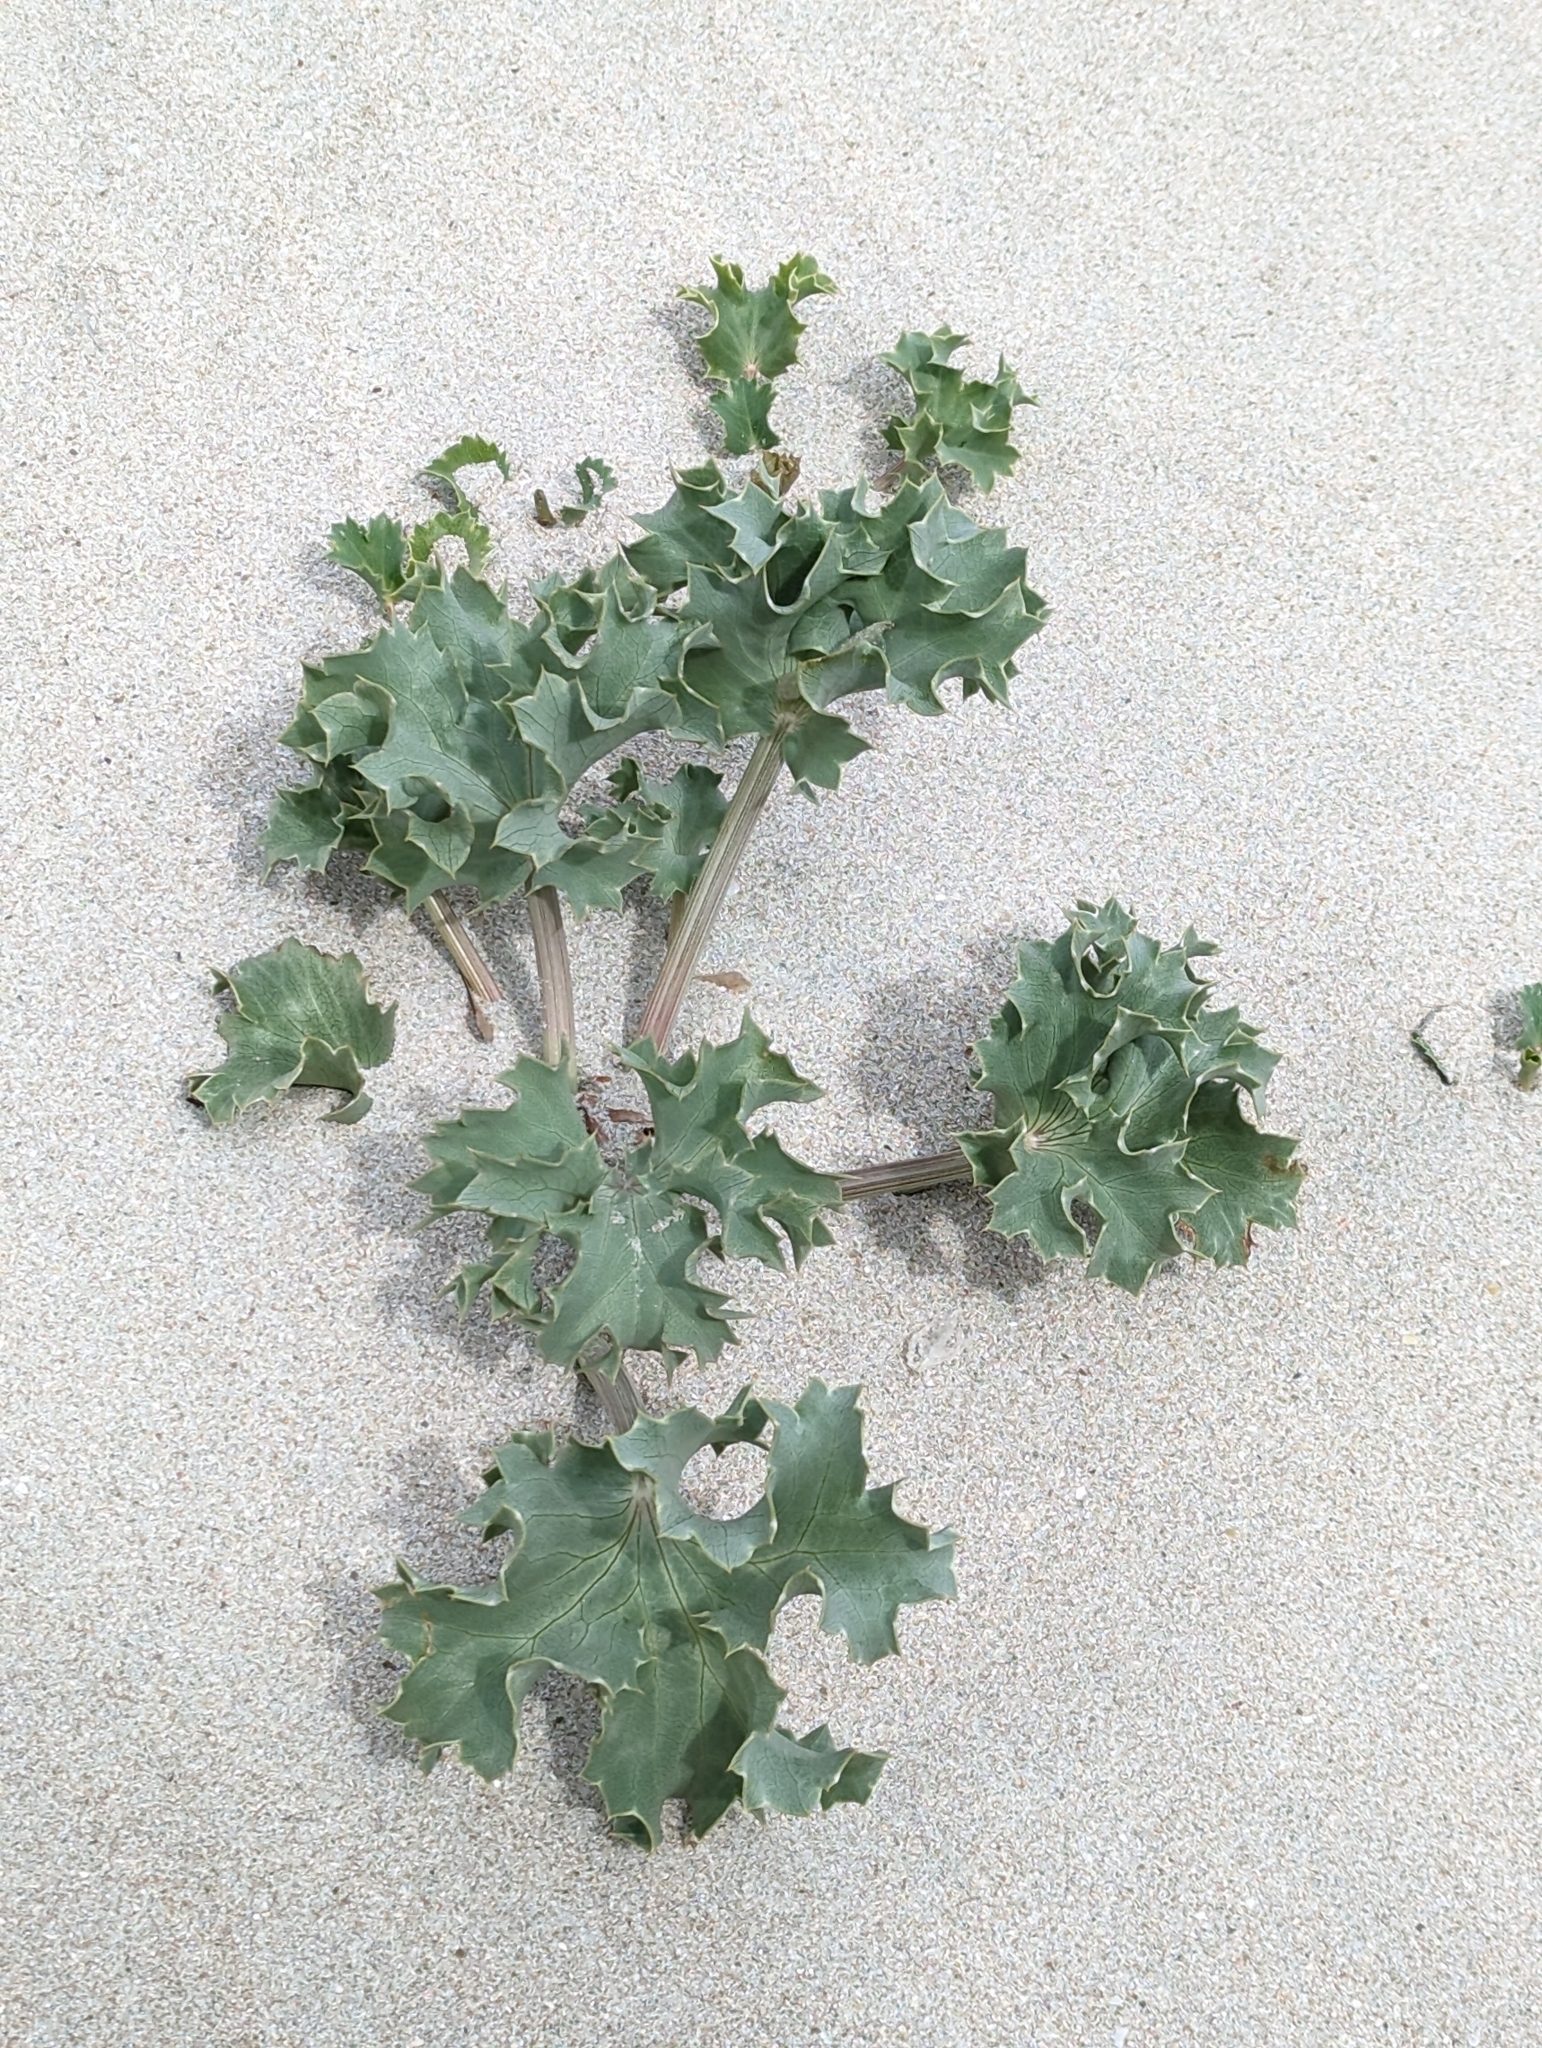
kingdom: Plantae
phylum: Tracheophyta
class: Magnoliopsida
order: Apiales
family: Apiaceae
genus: Eryngium
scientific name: Eryngium maritimum
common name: Sea-holly
